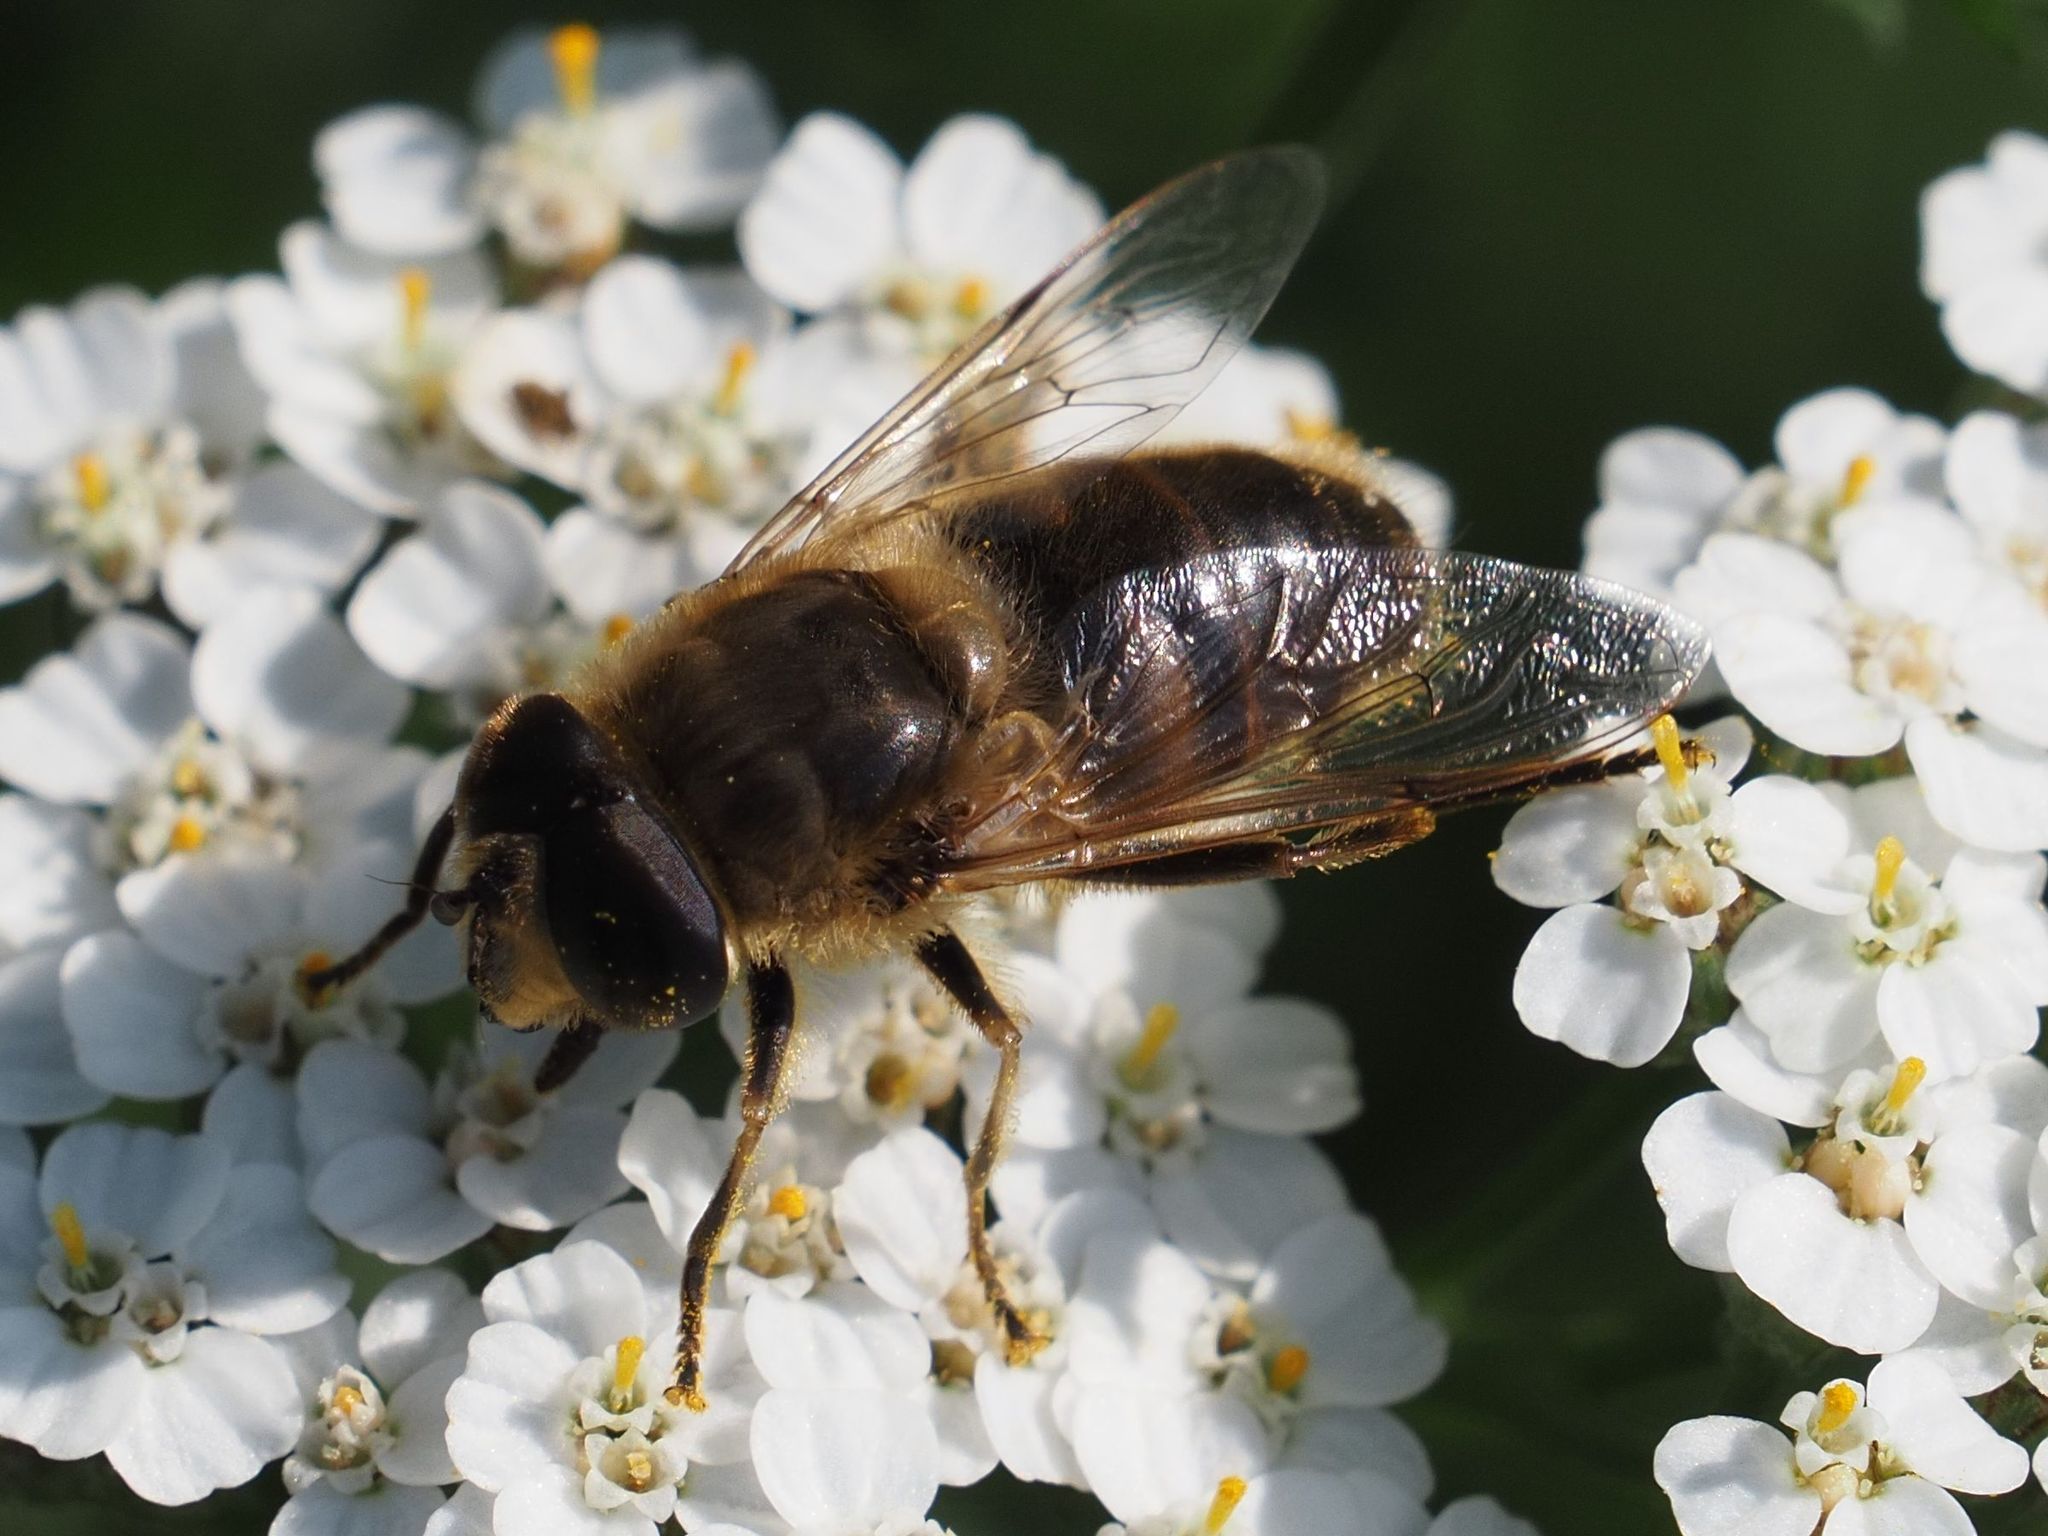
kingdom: Animalia
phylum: Arthropoda
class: Insecta
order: Diptera
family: Syrphidae
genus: Eristalis
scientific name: Eristalis tenax
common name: Drone fly
